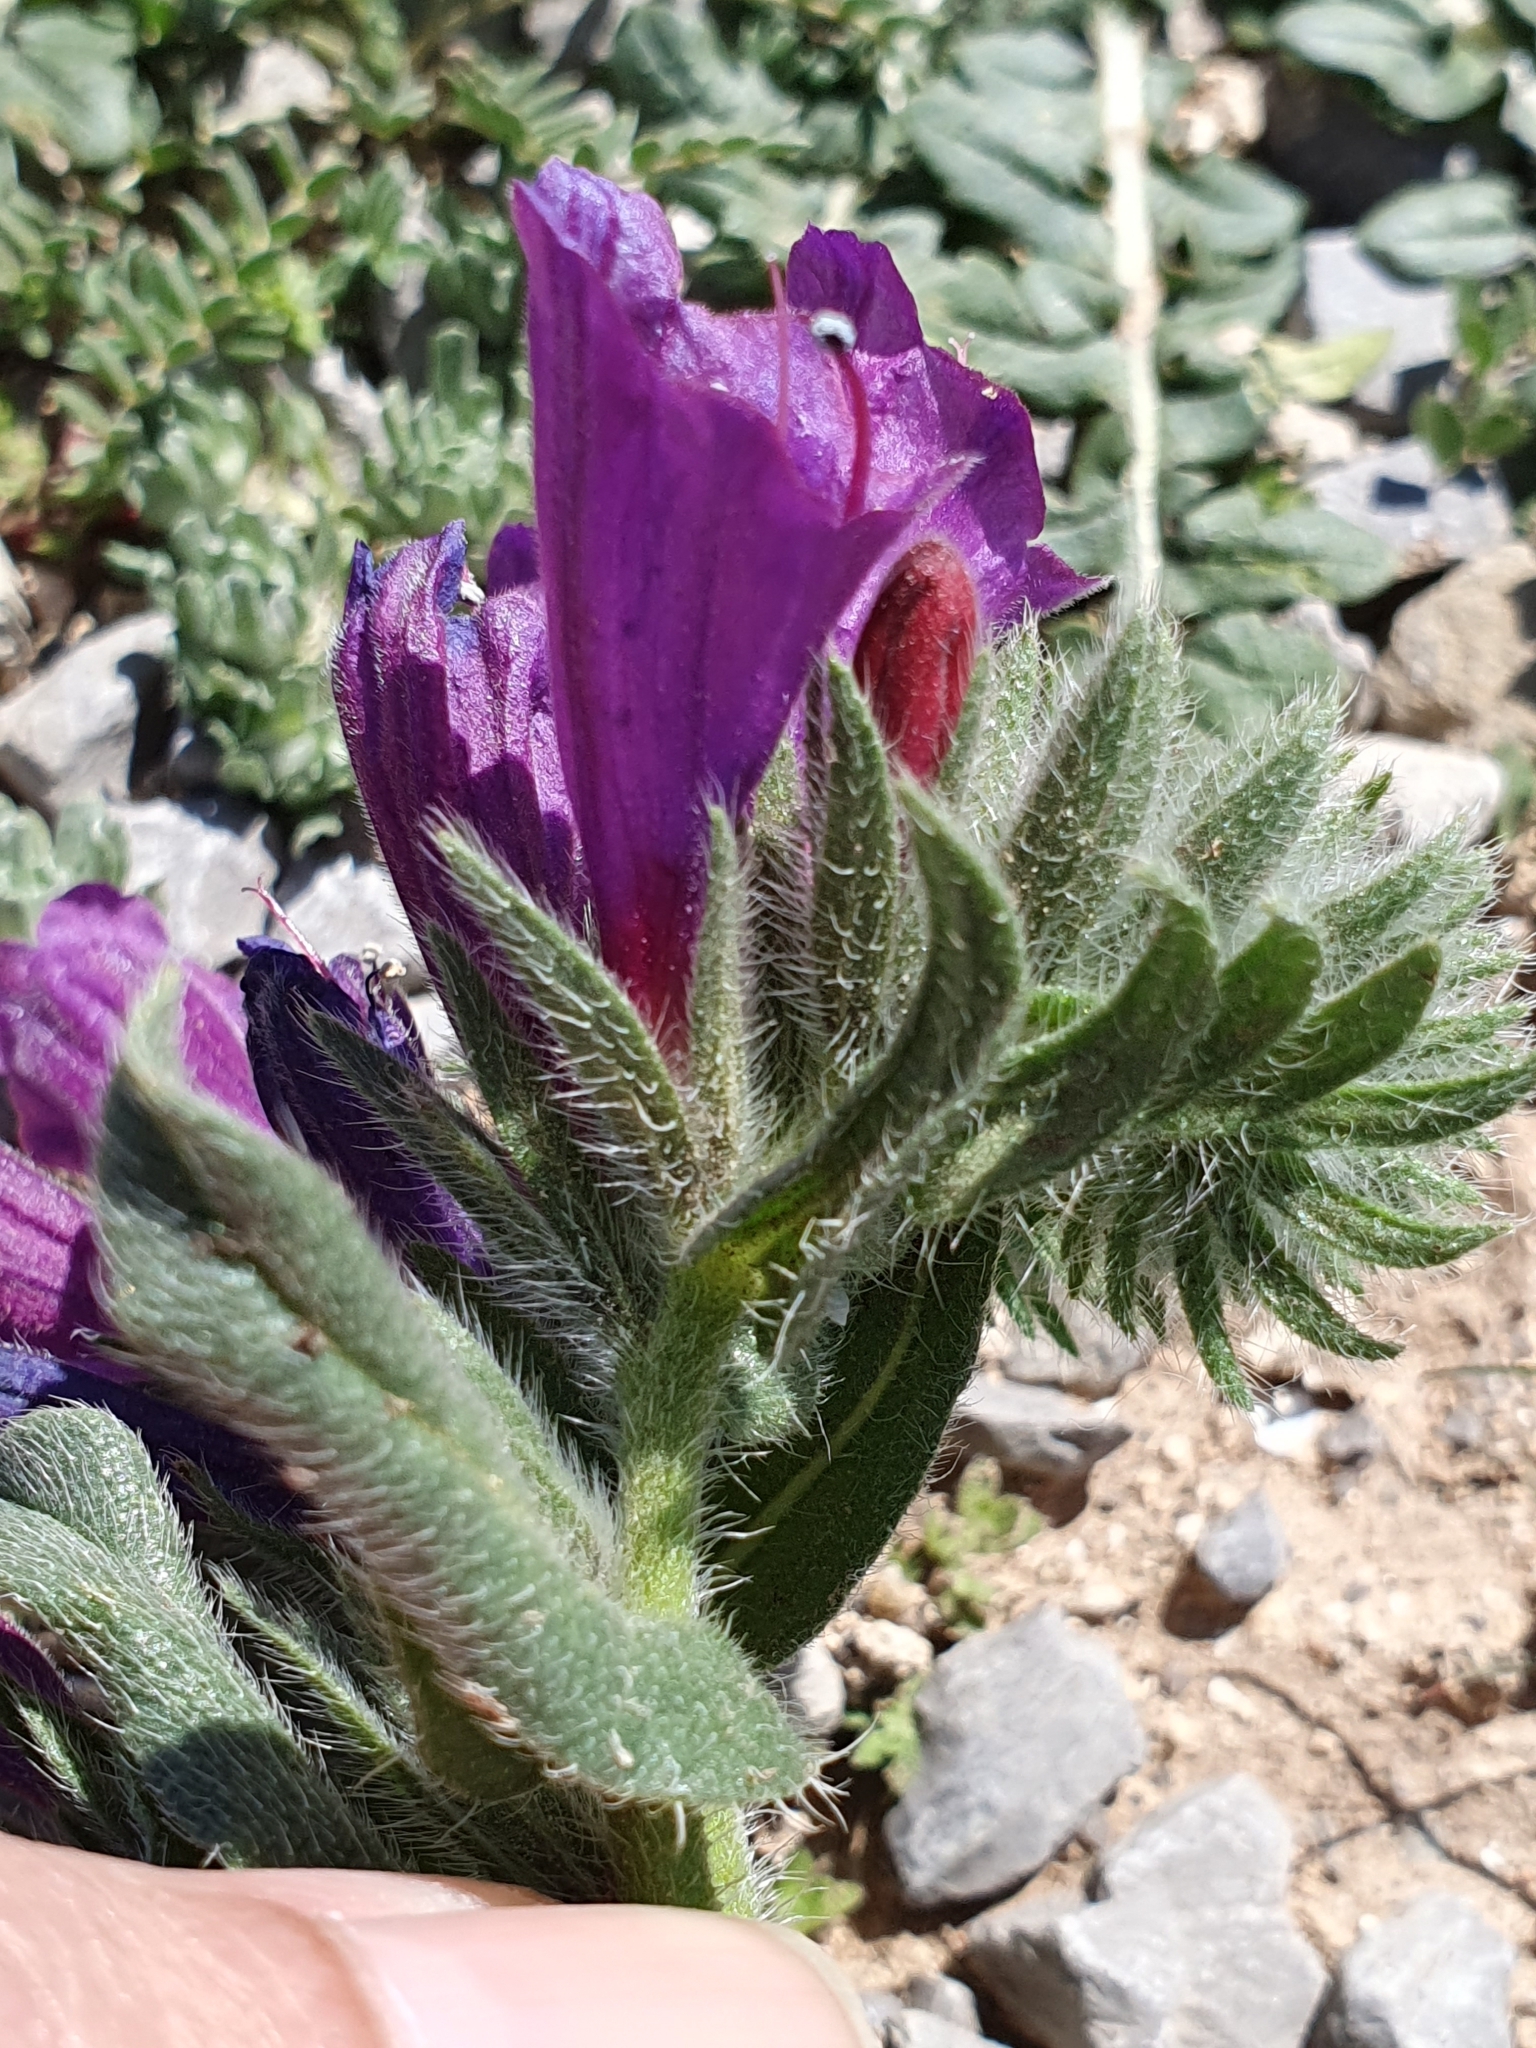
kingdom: Plantae
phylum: Tracheophyta
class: Magnoliopsida
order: Boraginales
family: Boraginaceae
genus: Echium
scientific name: Echium sabulicola
